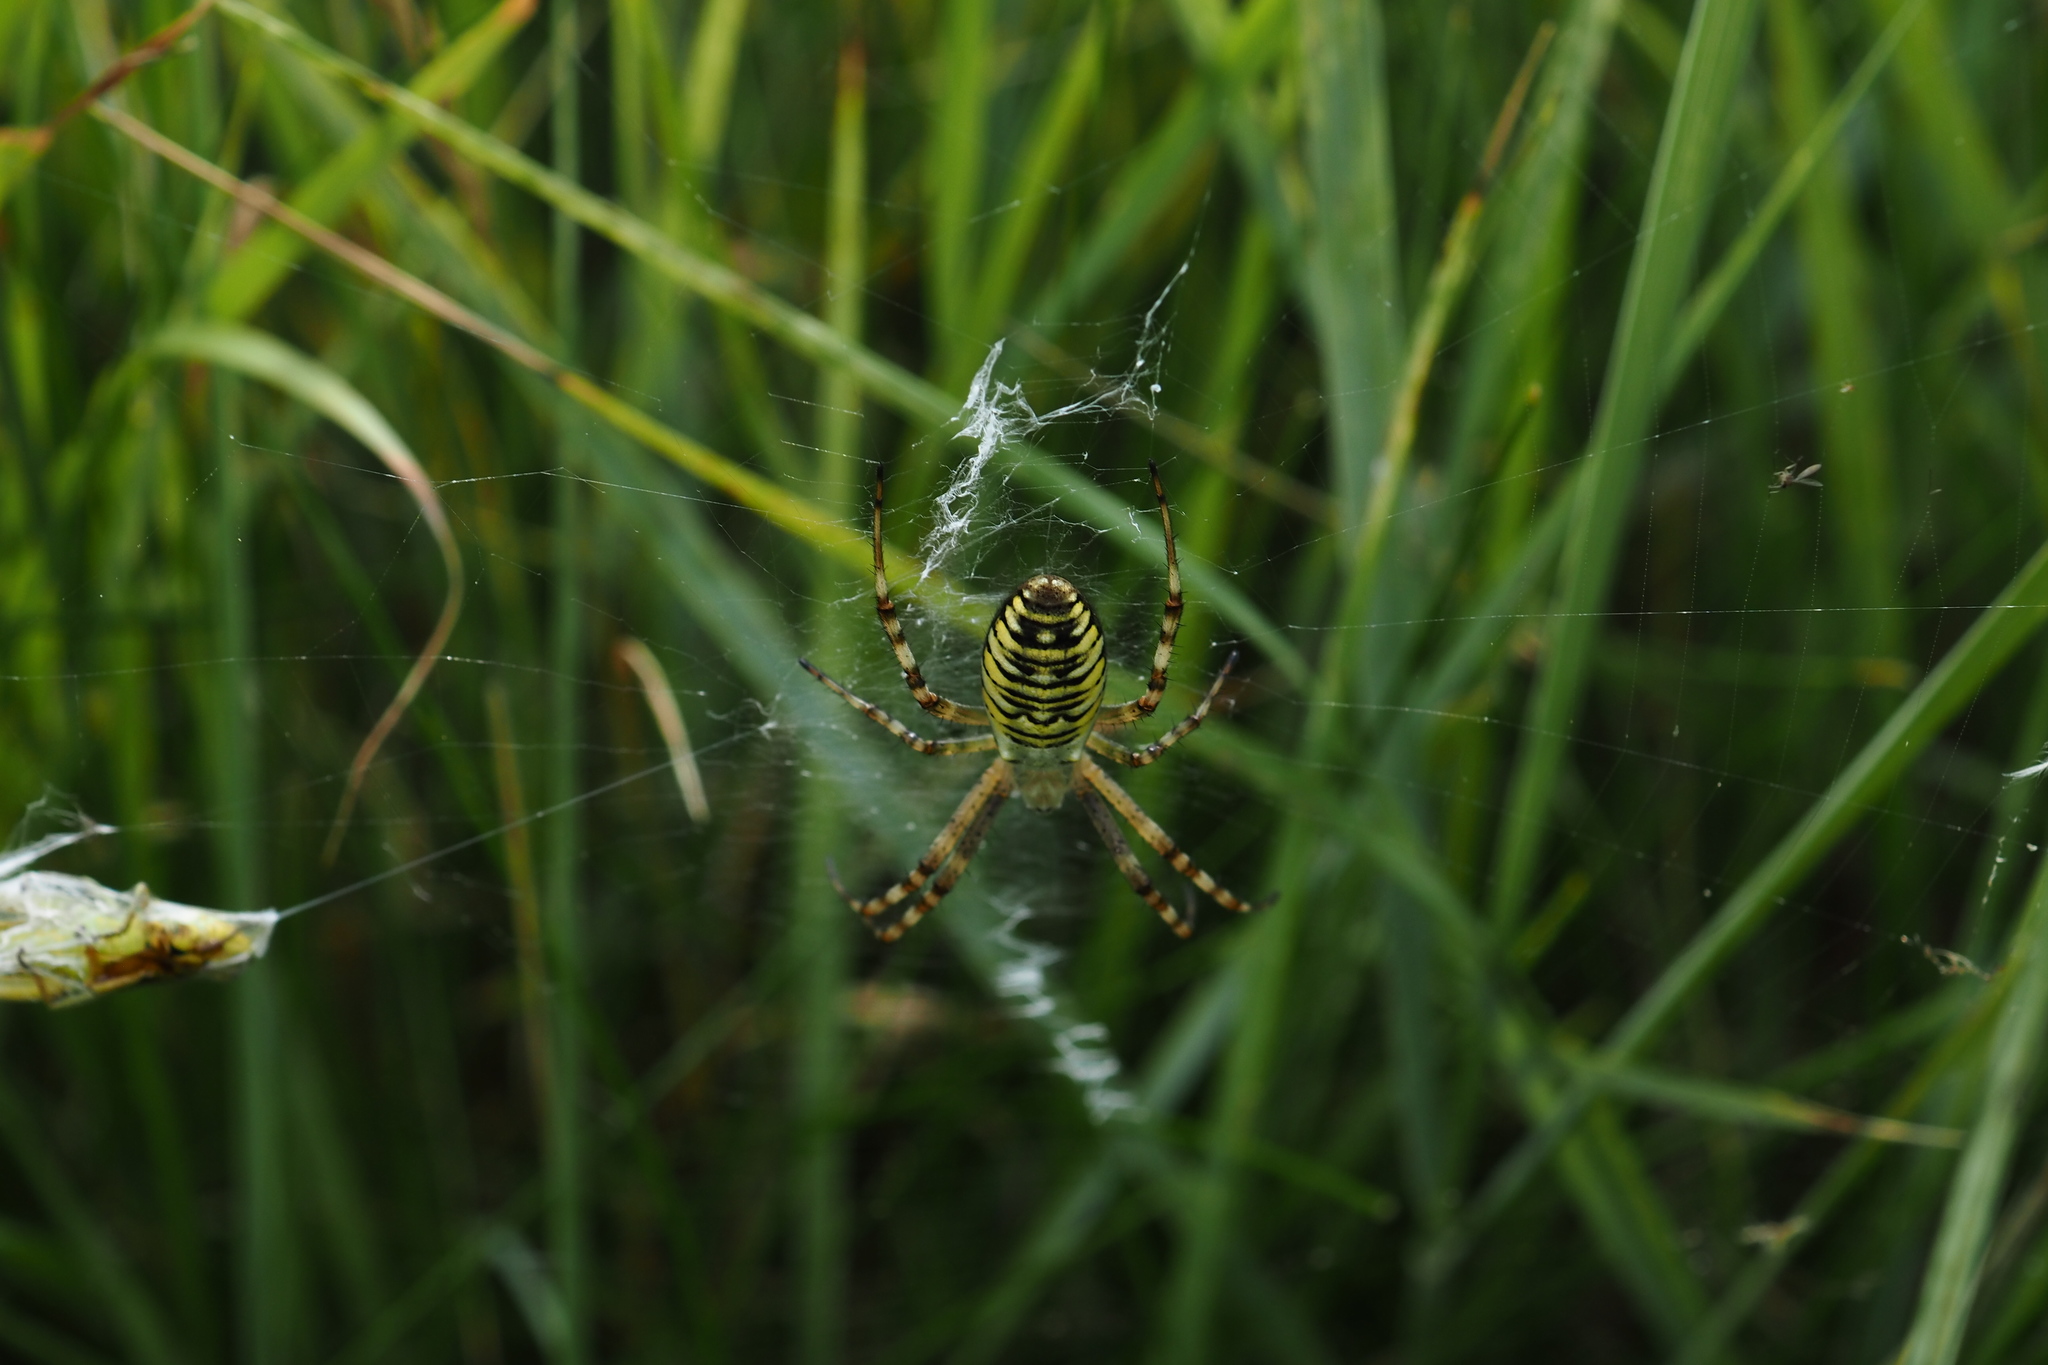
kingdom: Animalia
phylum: Arthropoda
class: Arachnida
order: Araneae
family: Araneidae
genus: Argiope
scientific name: Argiope bruennichi
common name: Wasp spider
